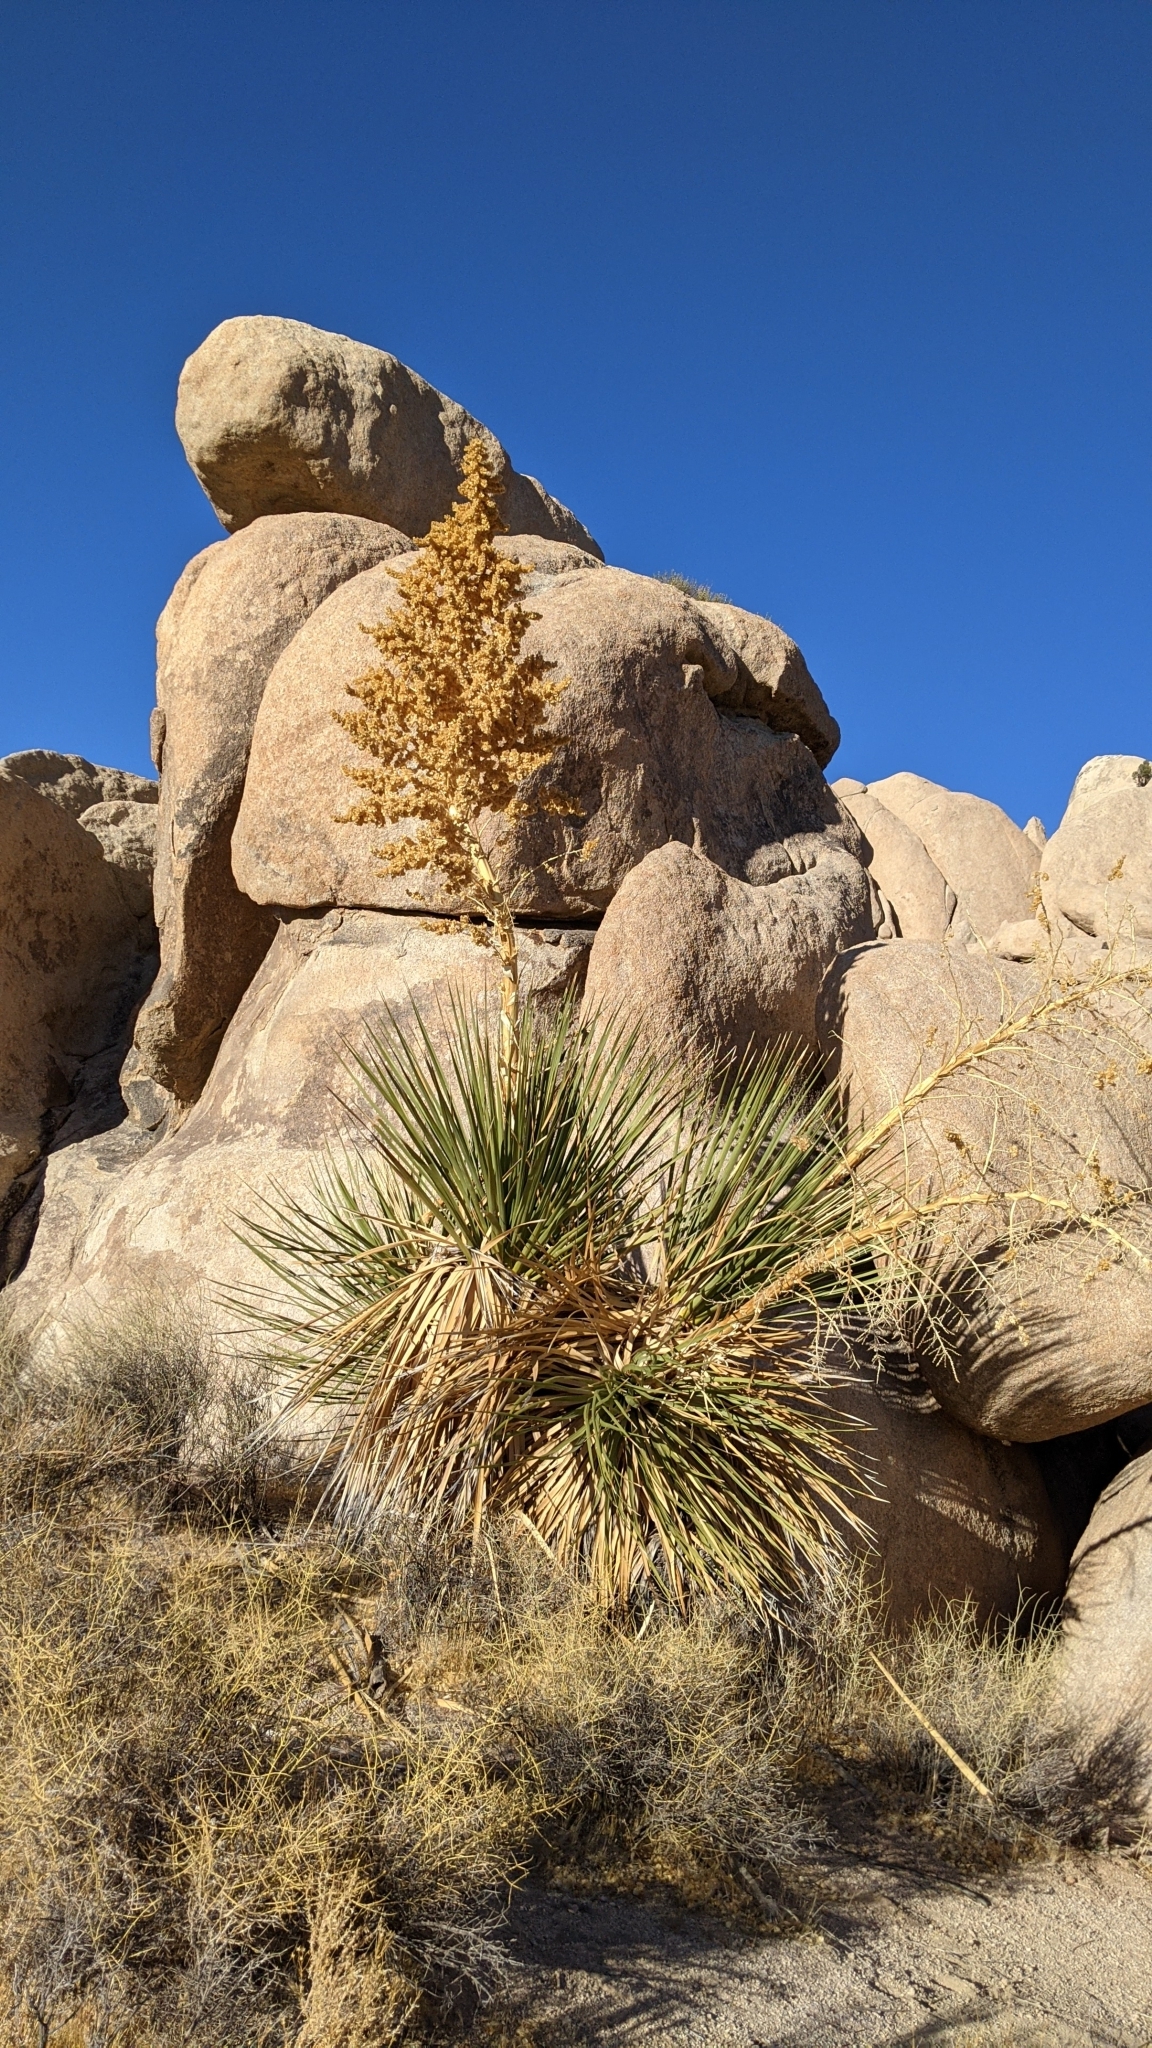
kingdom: Plantae
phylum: Tracheophyta
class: Liliopsida
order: Asparagales
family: Asparagaceae
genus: Nolina
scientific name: Nolina parryi
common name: Parry nolina
